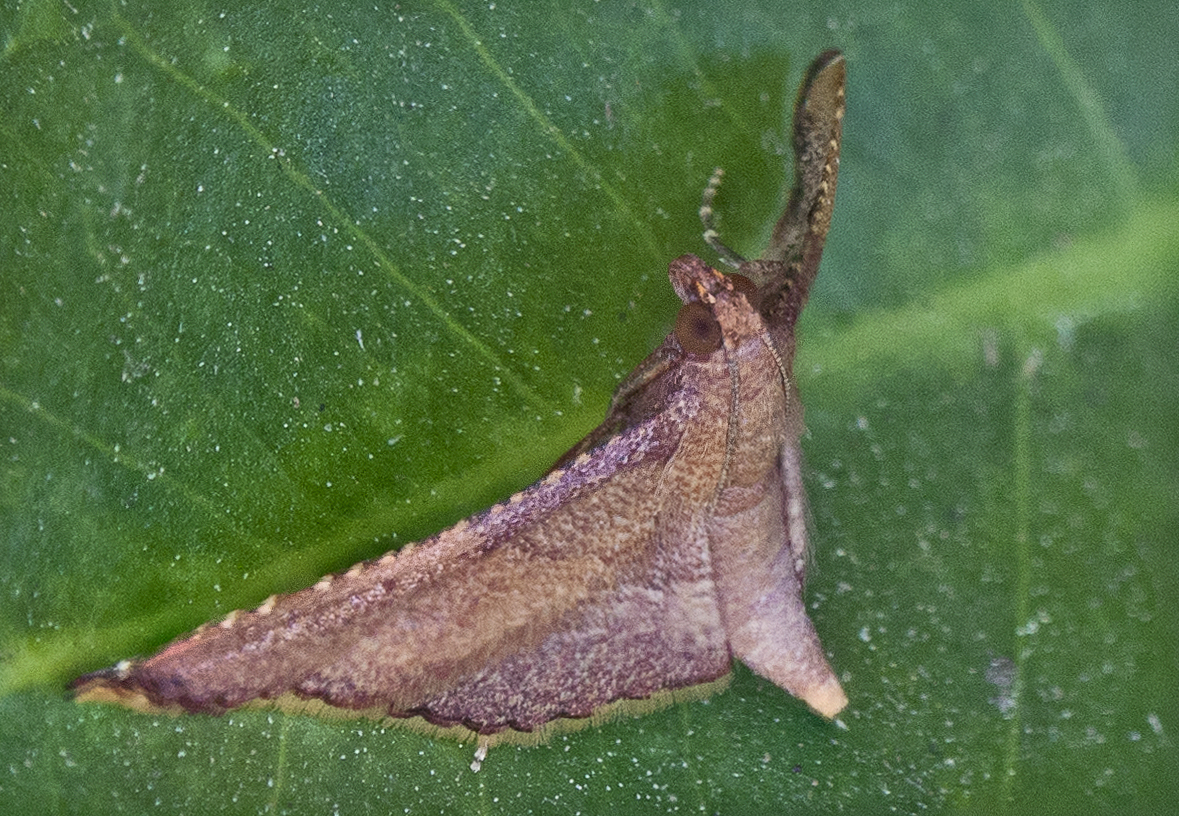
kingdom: Animalia
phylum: Arthropoda
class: Insecta
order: Lepidoptera
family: Pyralidae
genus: Endotricha
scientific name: Endotricha mesenterialis
